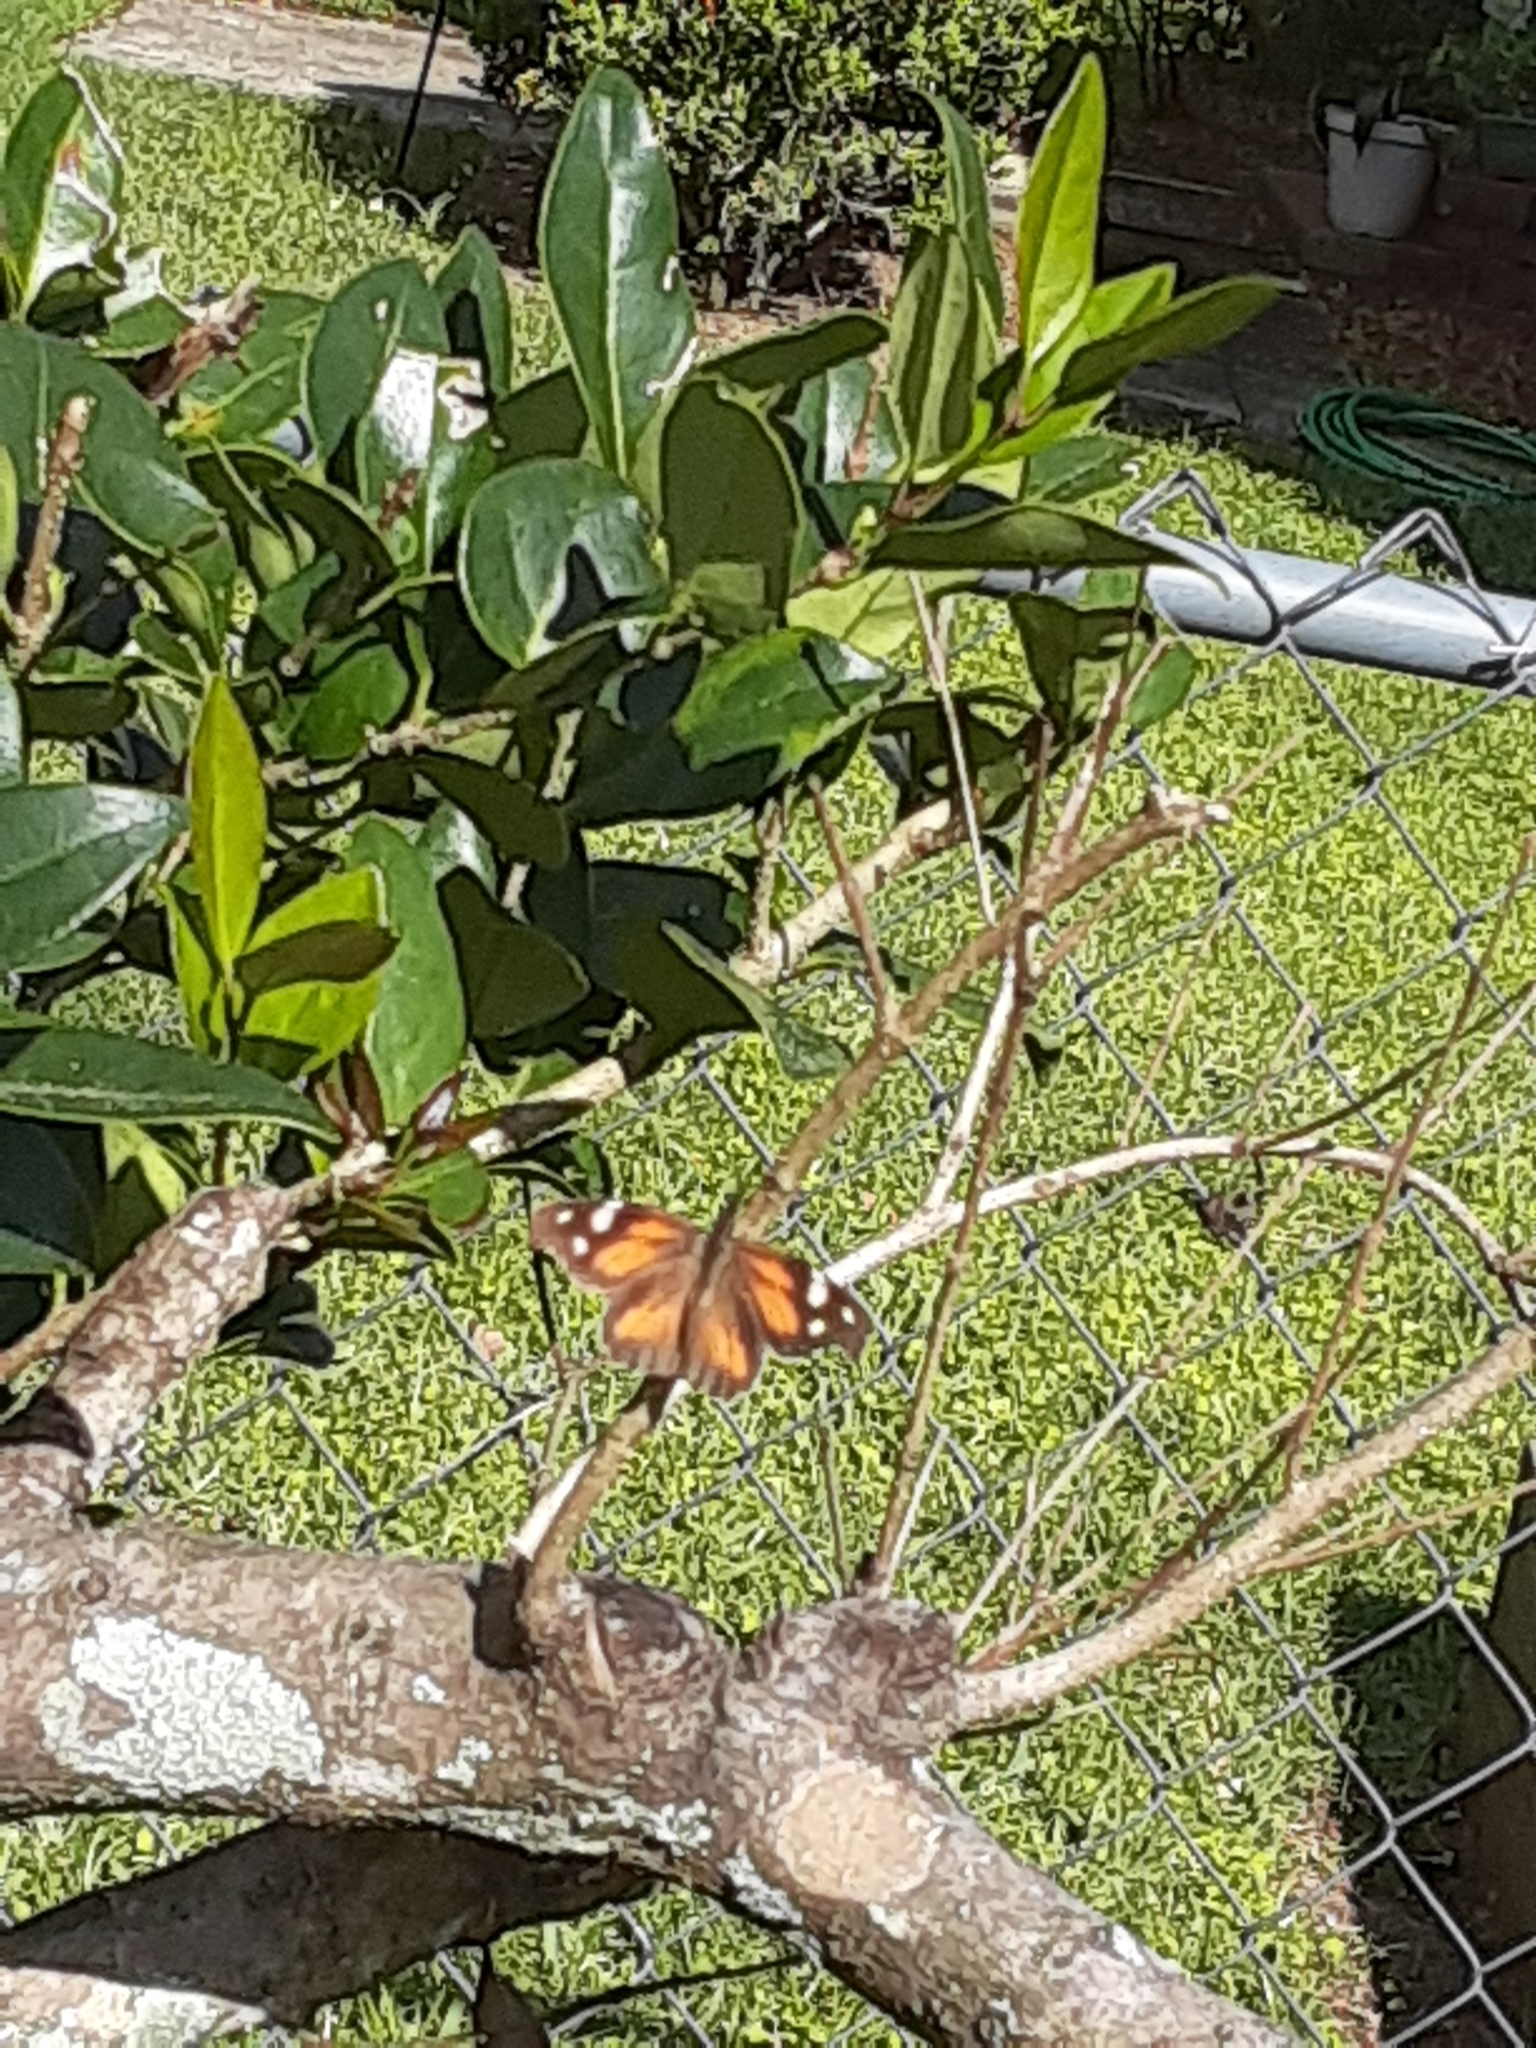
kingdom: Animalia
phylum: Arthropoda
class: Insecta
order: Lepidoptera
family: Nymphalidae
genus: Libytheana
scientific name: Libytheana carinenta
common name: American snout
